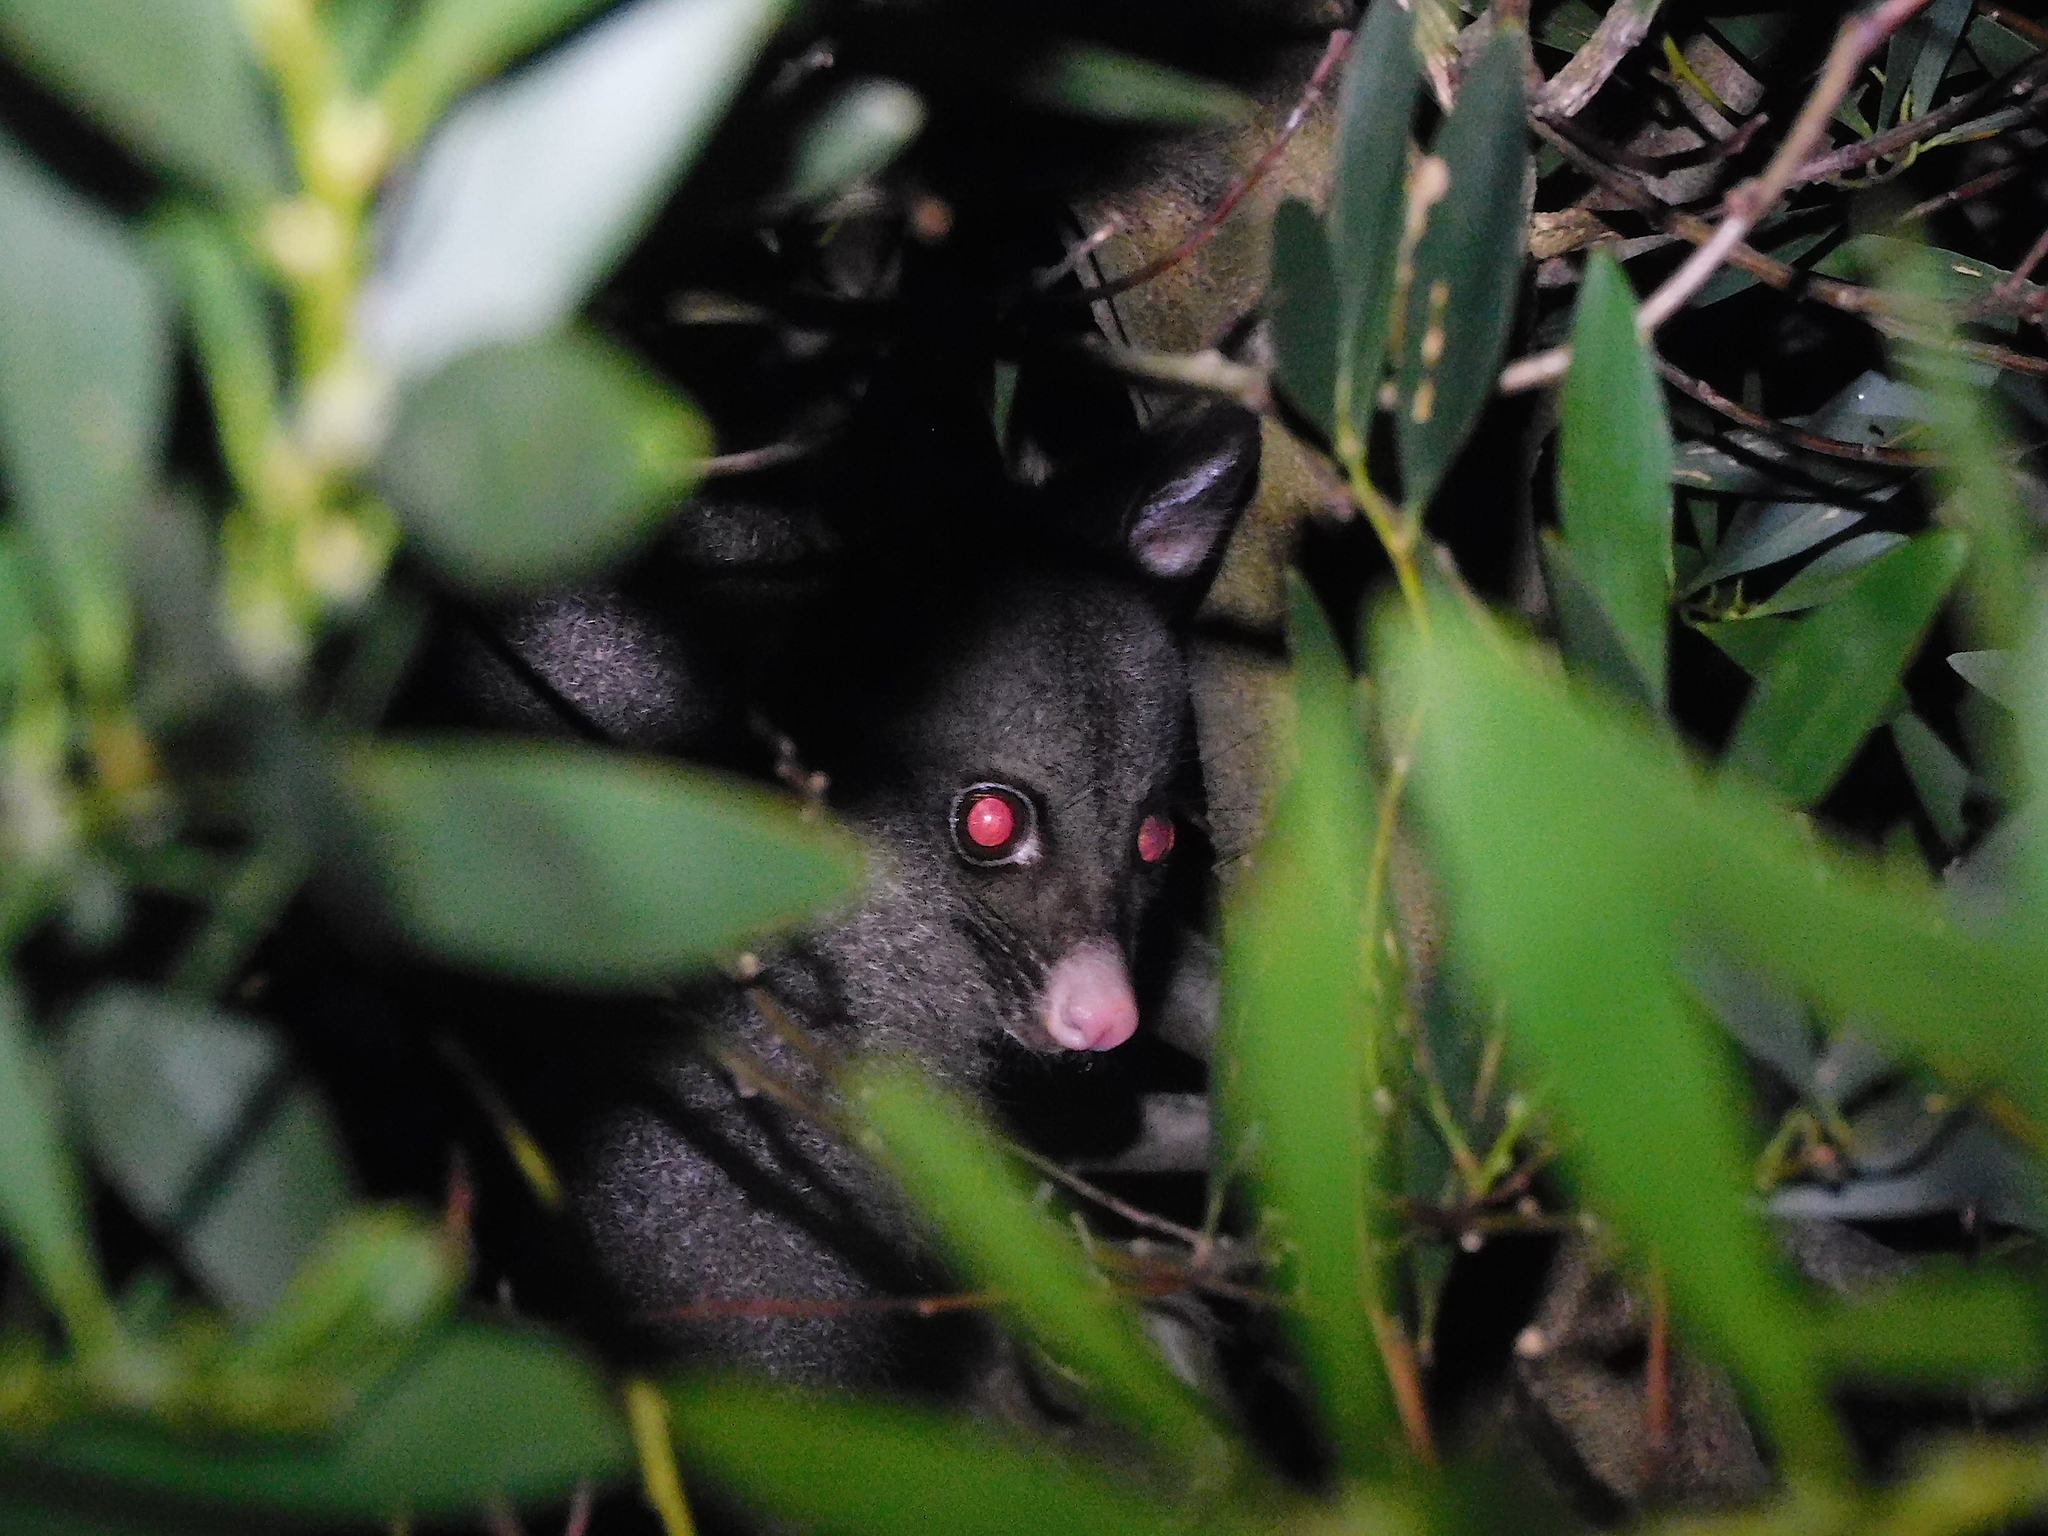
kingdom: Animalia
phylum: Chordata
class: Mammalia
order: Diprotodontia
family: Phalangeridae
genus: Trichosurus
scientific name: Trichosurus vulpecula
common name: Common brushtail
